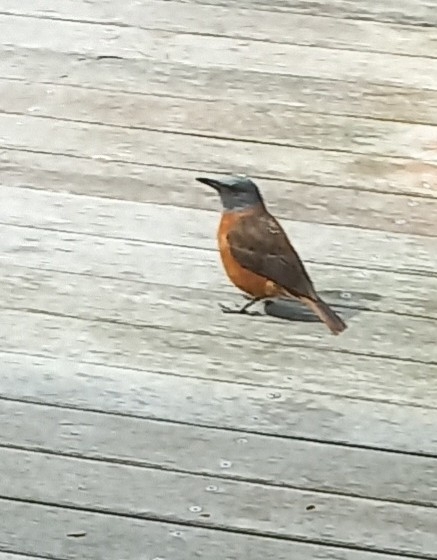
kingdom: Animalia
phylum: Chordata
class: Aves
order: Passeriformes
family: Muscicapidae
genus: Monticola
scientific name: Monticola rupestris
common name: Cape rock thrush
